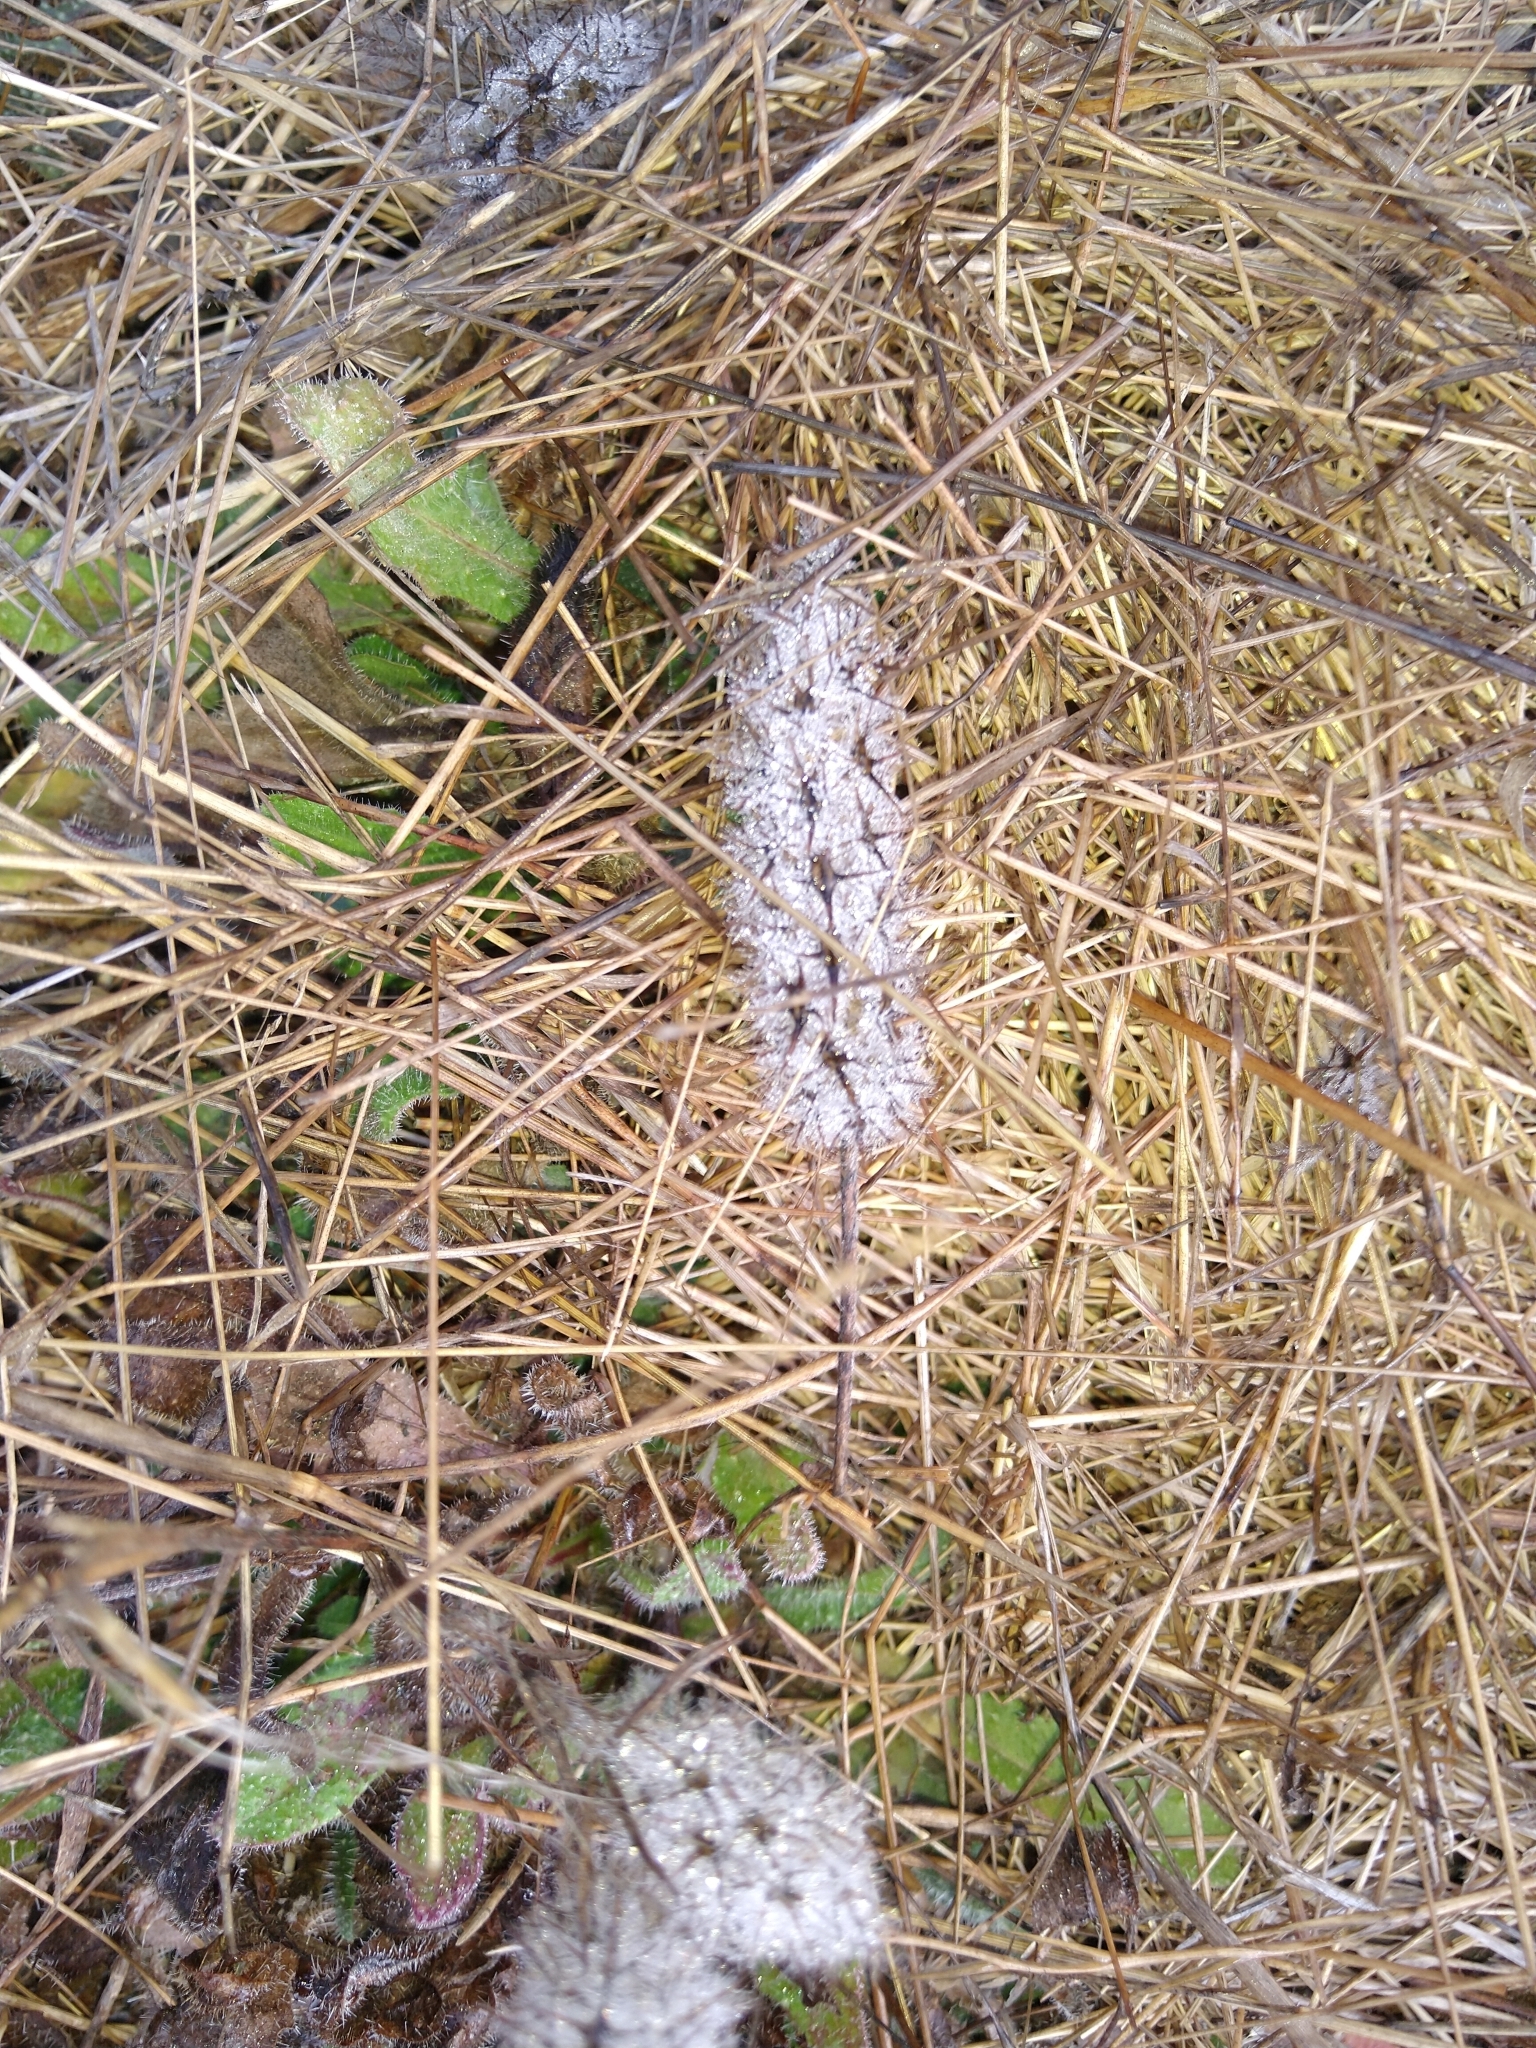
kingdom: Plantae
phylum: Tracheophyta
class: Magnoliopsida
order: Fabales
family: Fabaceae
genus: Trifolium
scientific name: Trifolium angustifolium
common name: Narrow clover
